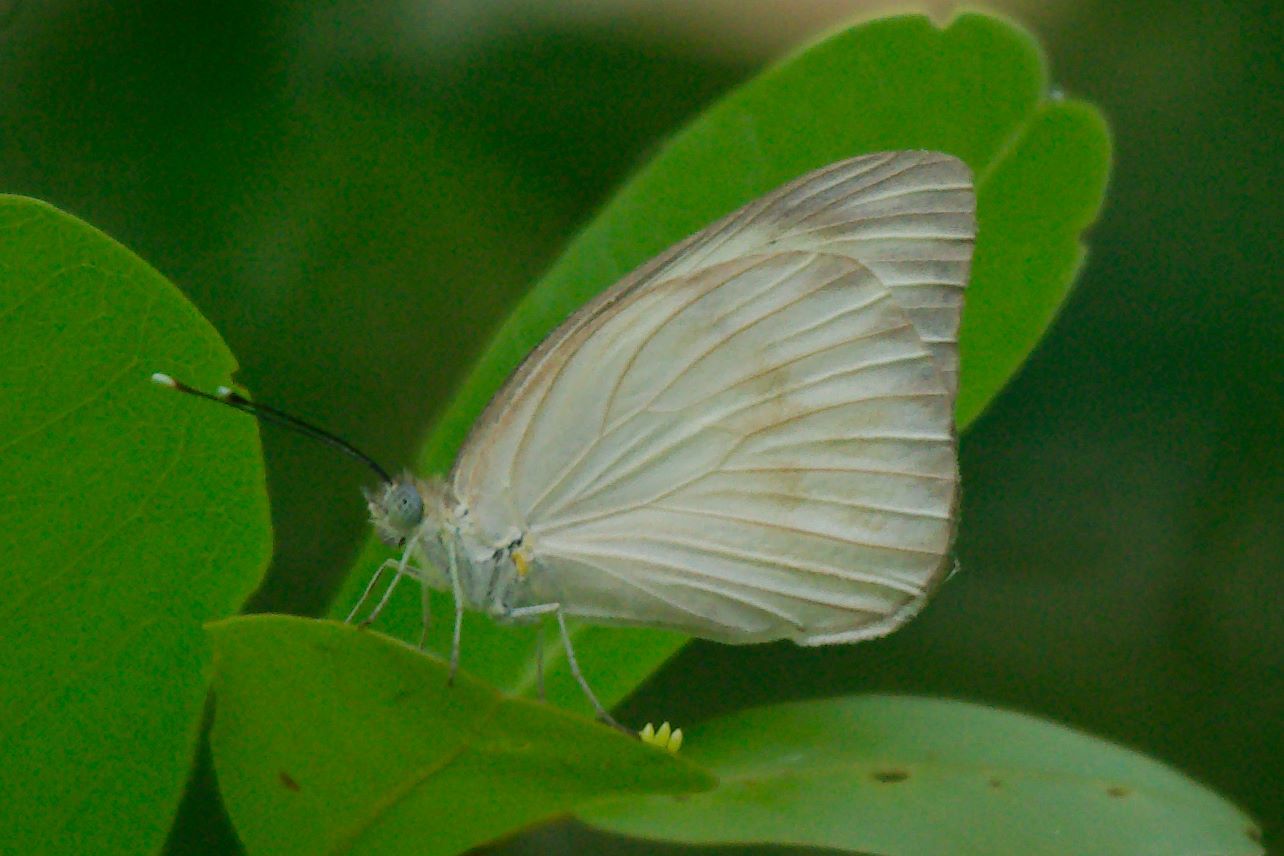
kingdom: Animalia
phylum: Arthropoda
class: Insecta
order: Lepidoptera
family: Pieridae
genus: Ascia
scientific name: Ascia monuste
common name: Great southern white
